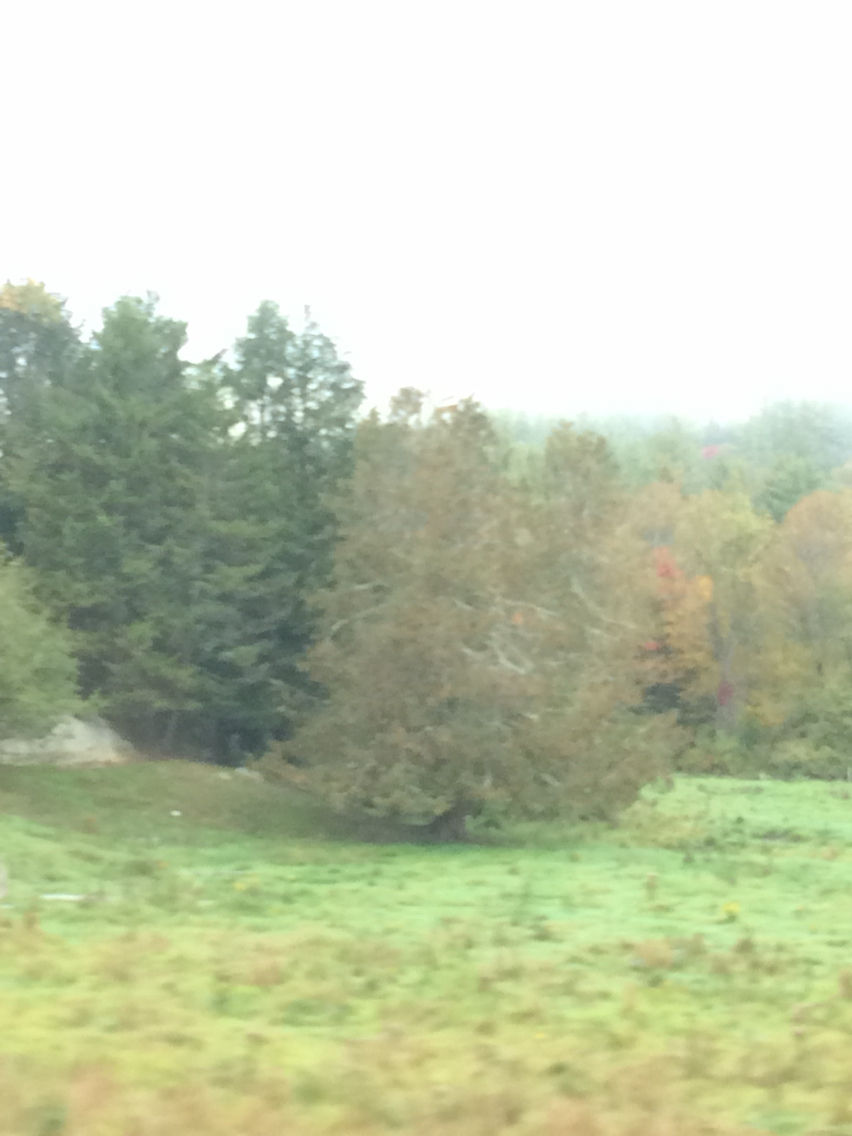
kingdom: Plantae
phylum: Tracheophyta
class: Pinopsida
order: Pinales
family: Cupressaceae
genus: Thuja
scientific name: Thuja occidentalis
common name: Northern white-cedar
